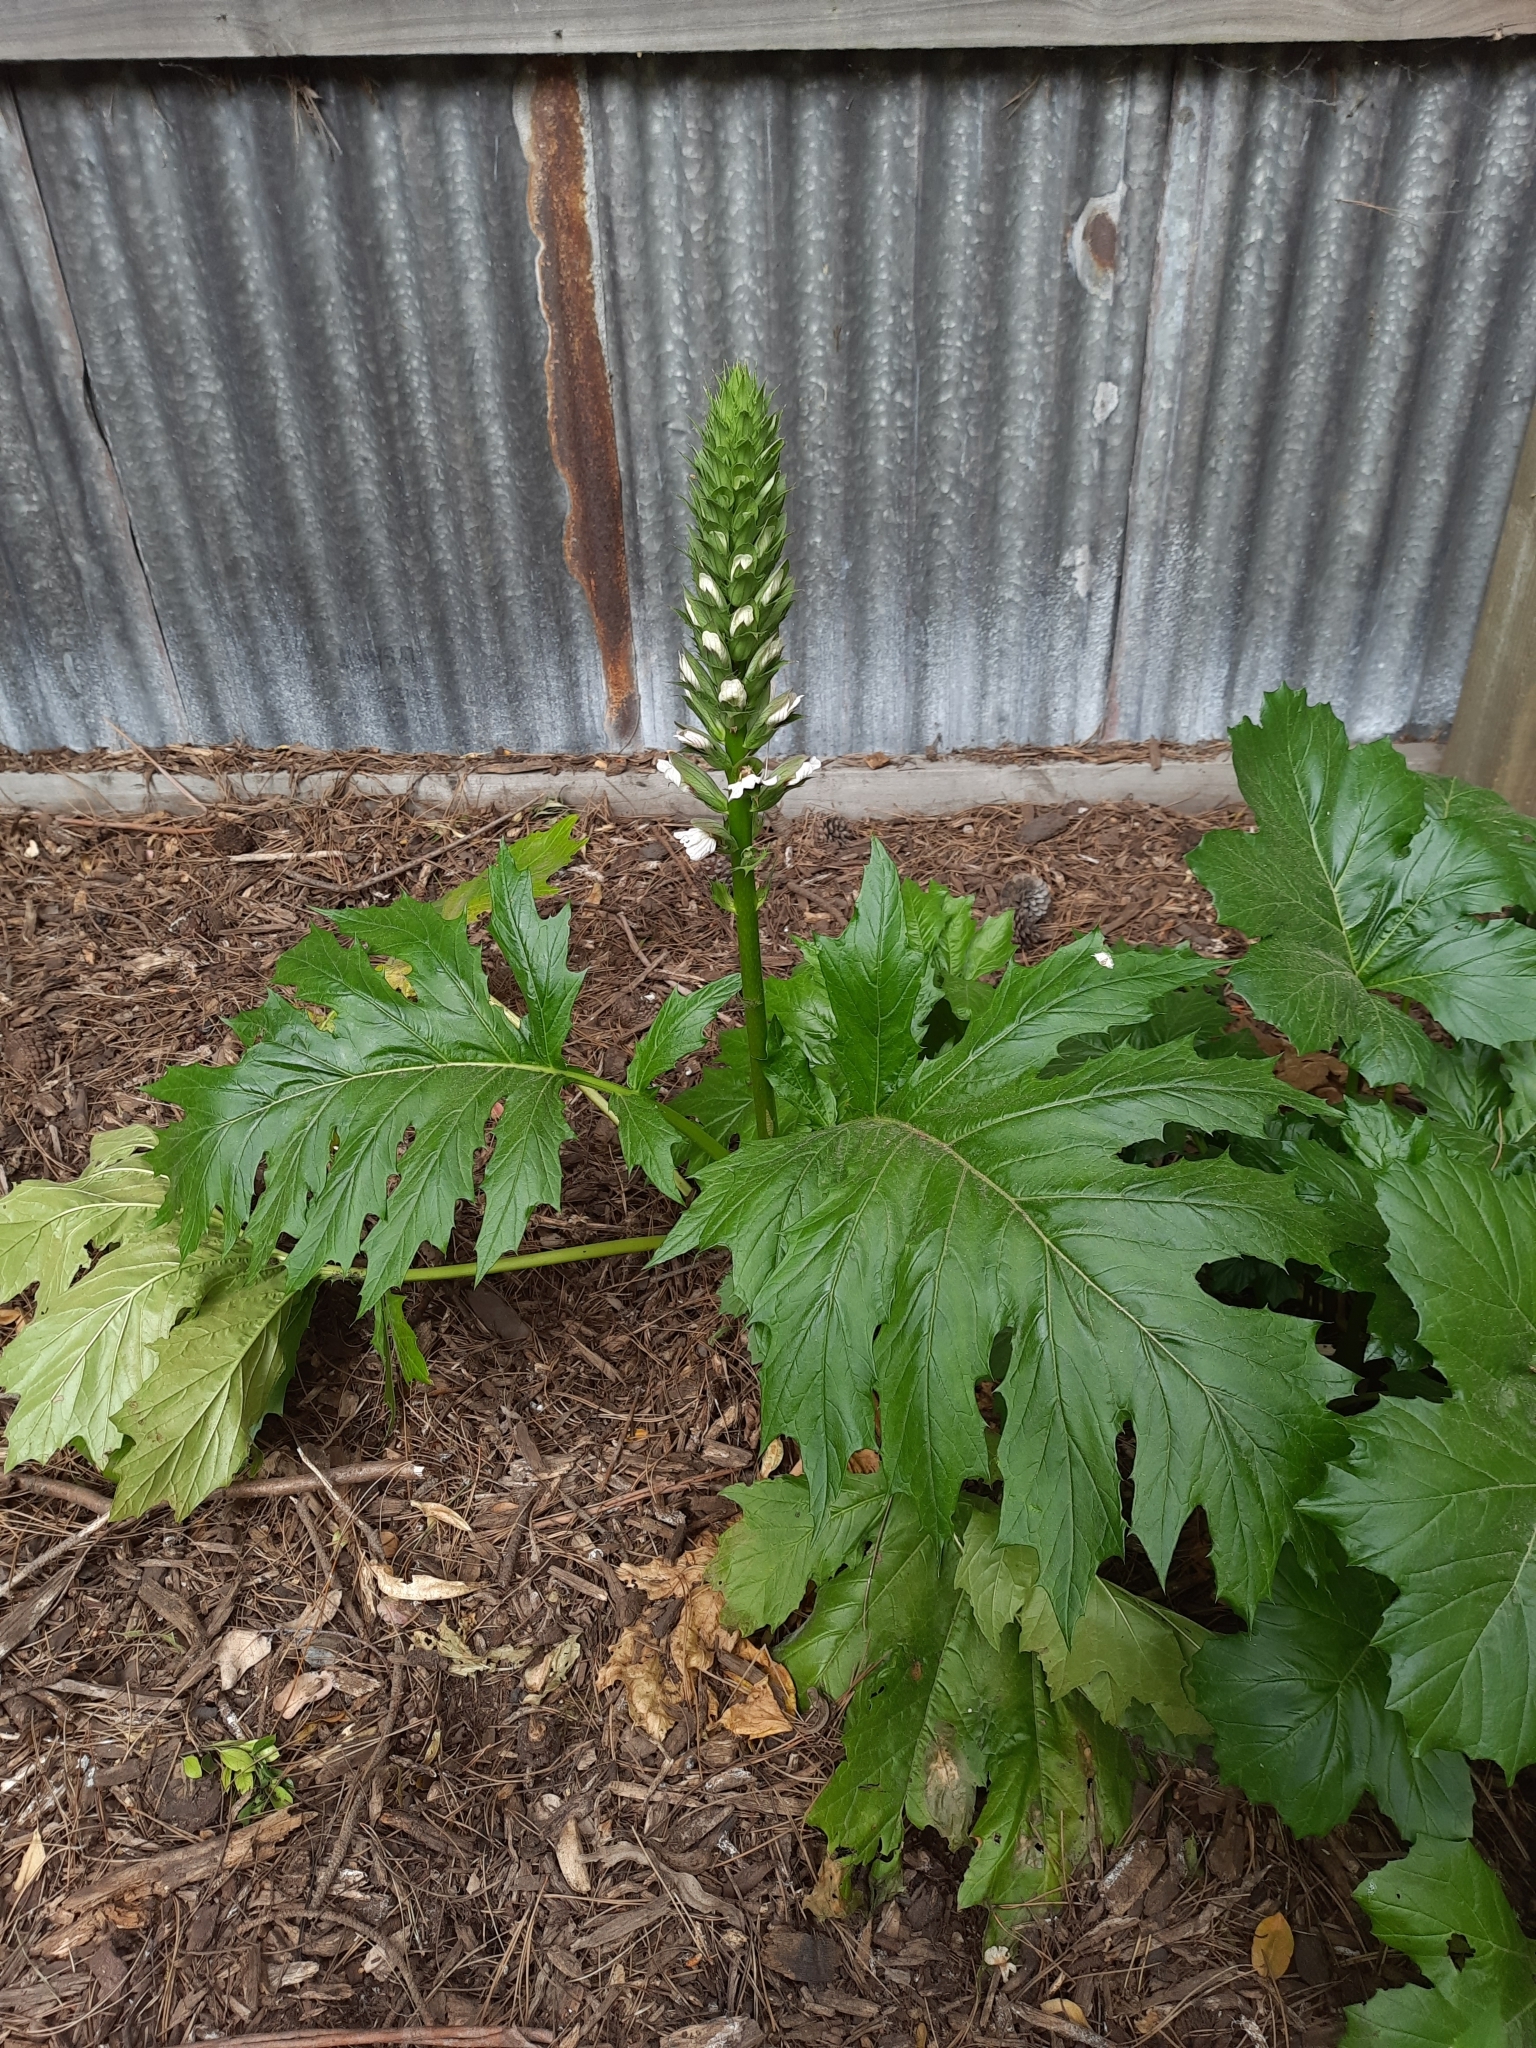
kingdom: Plantae
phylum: Tracheophyta
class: Magnoliopsida
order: Lamiales
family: Acanthaceae
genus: Acanthus
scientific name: Acanthus mollis
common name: Bear's-breech
